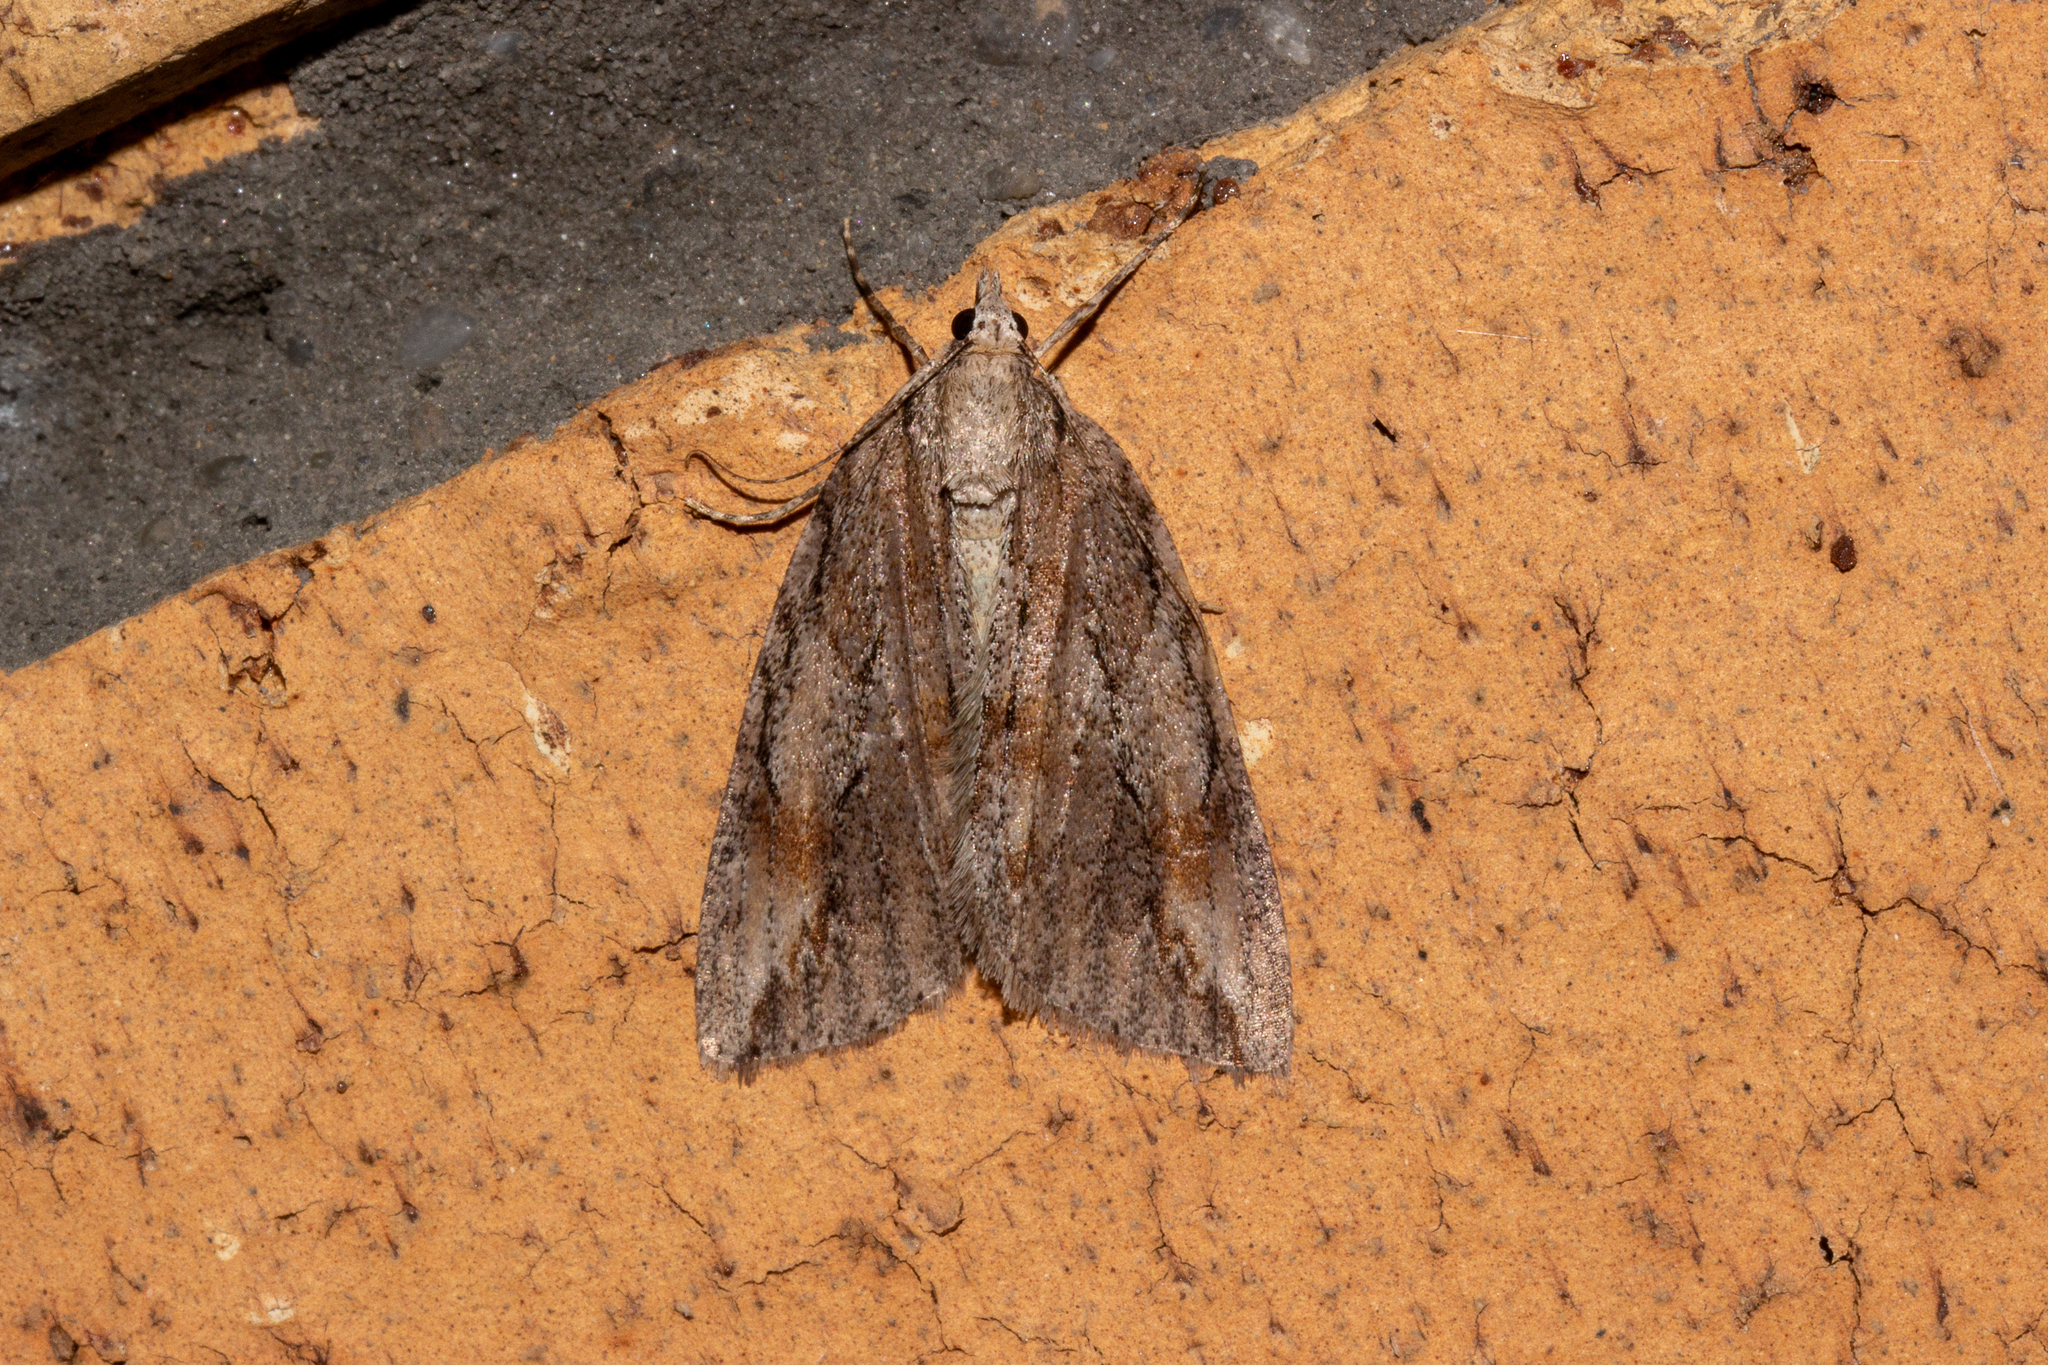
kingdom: Animalia
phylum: Arthropoda
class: Insecta
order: Lepidoptera
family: Geometridae
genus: Pseudocoremia
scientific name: Pseudocoremia lupinata
